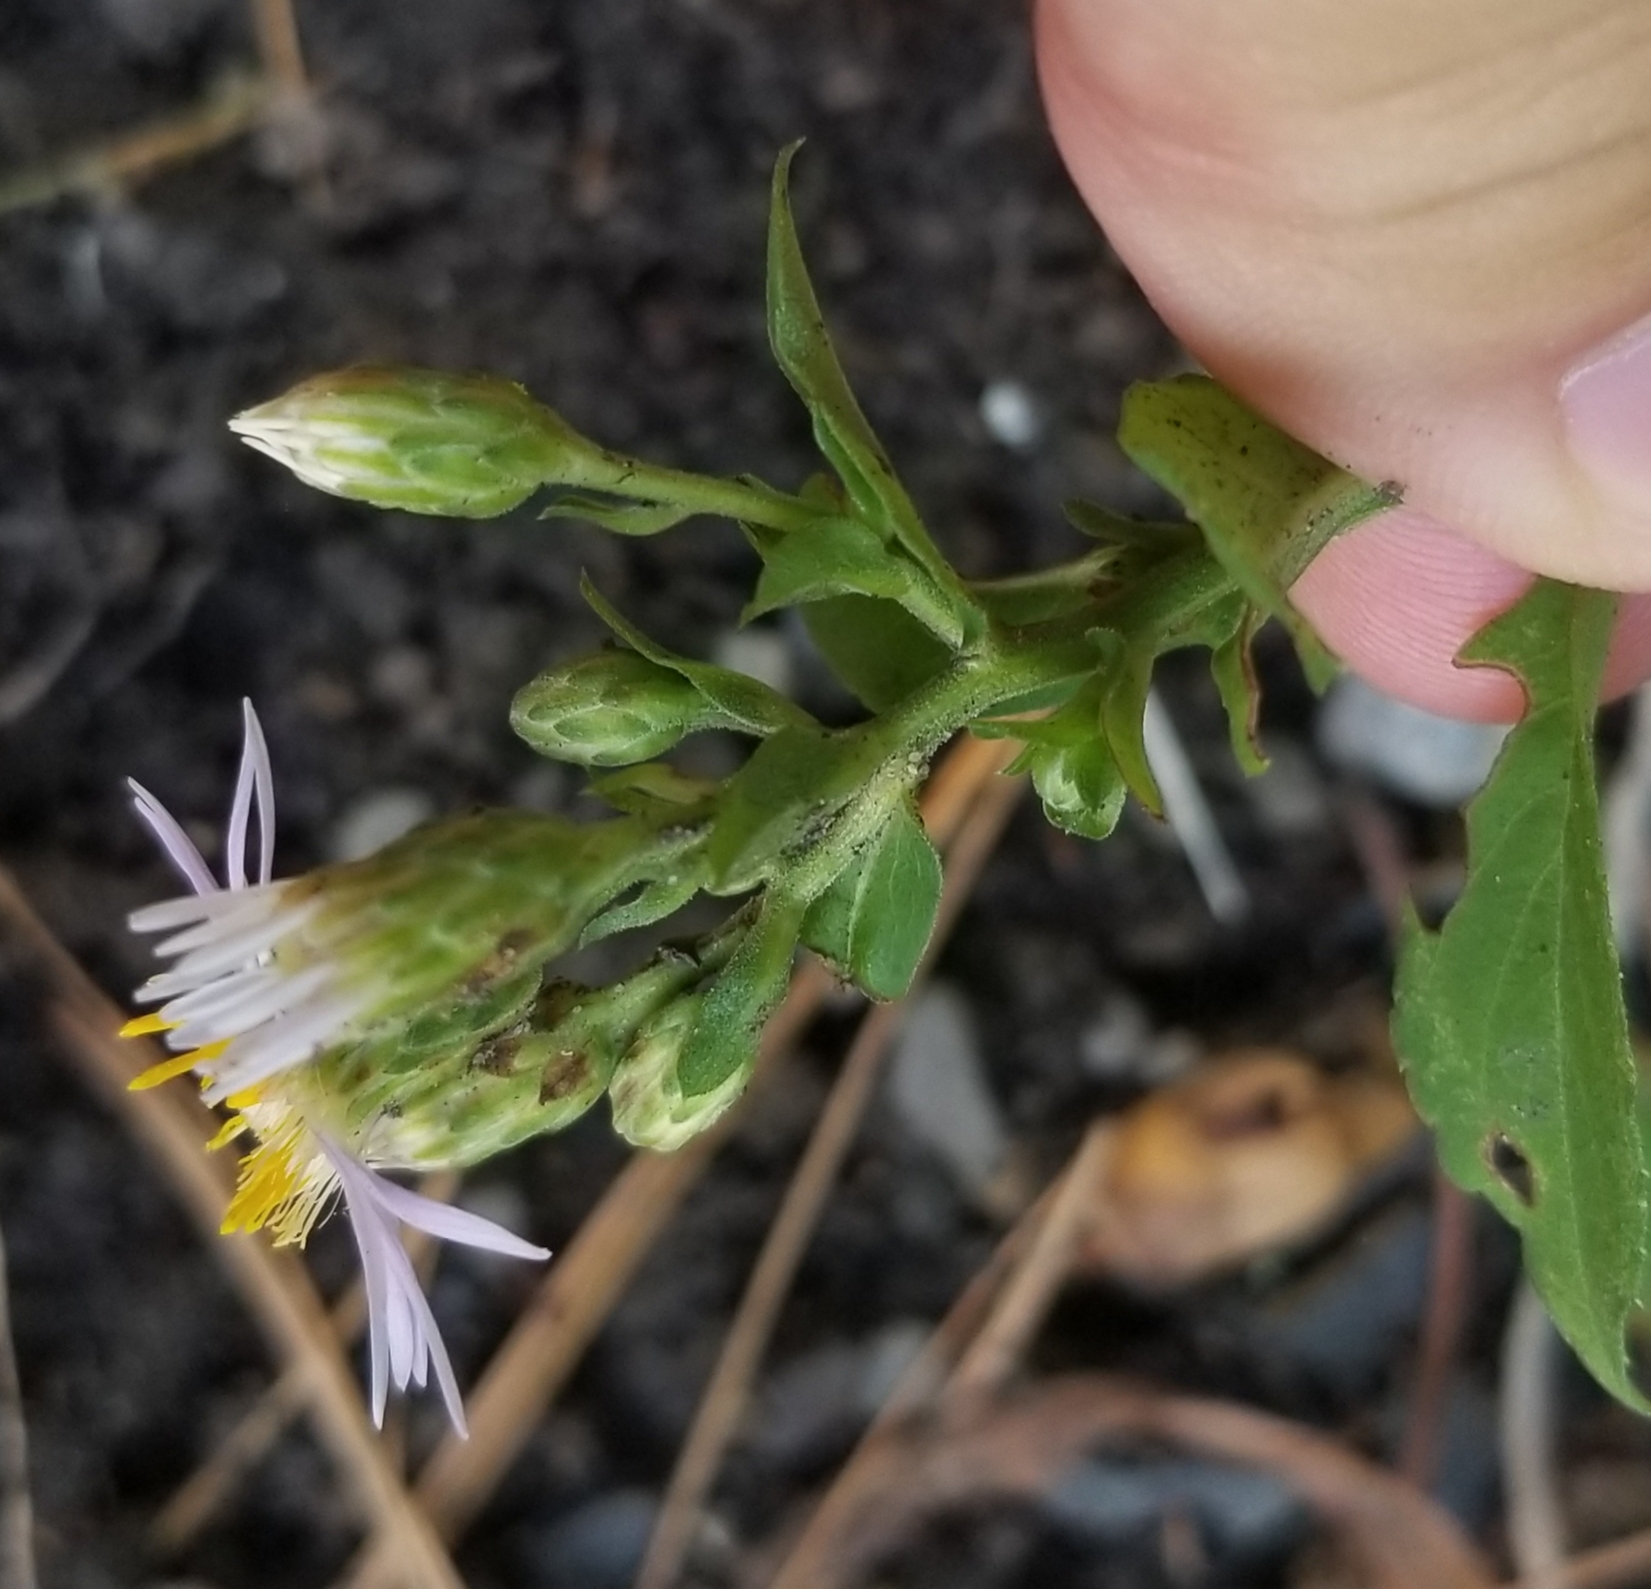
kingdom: Plantae
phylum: Tracheophyta
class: Magnoliopsida
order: Asterales
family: Asteraceae
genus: Eurybia
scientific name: Eurybia macrophylla
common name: Big-leaved aster
